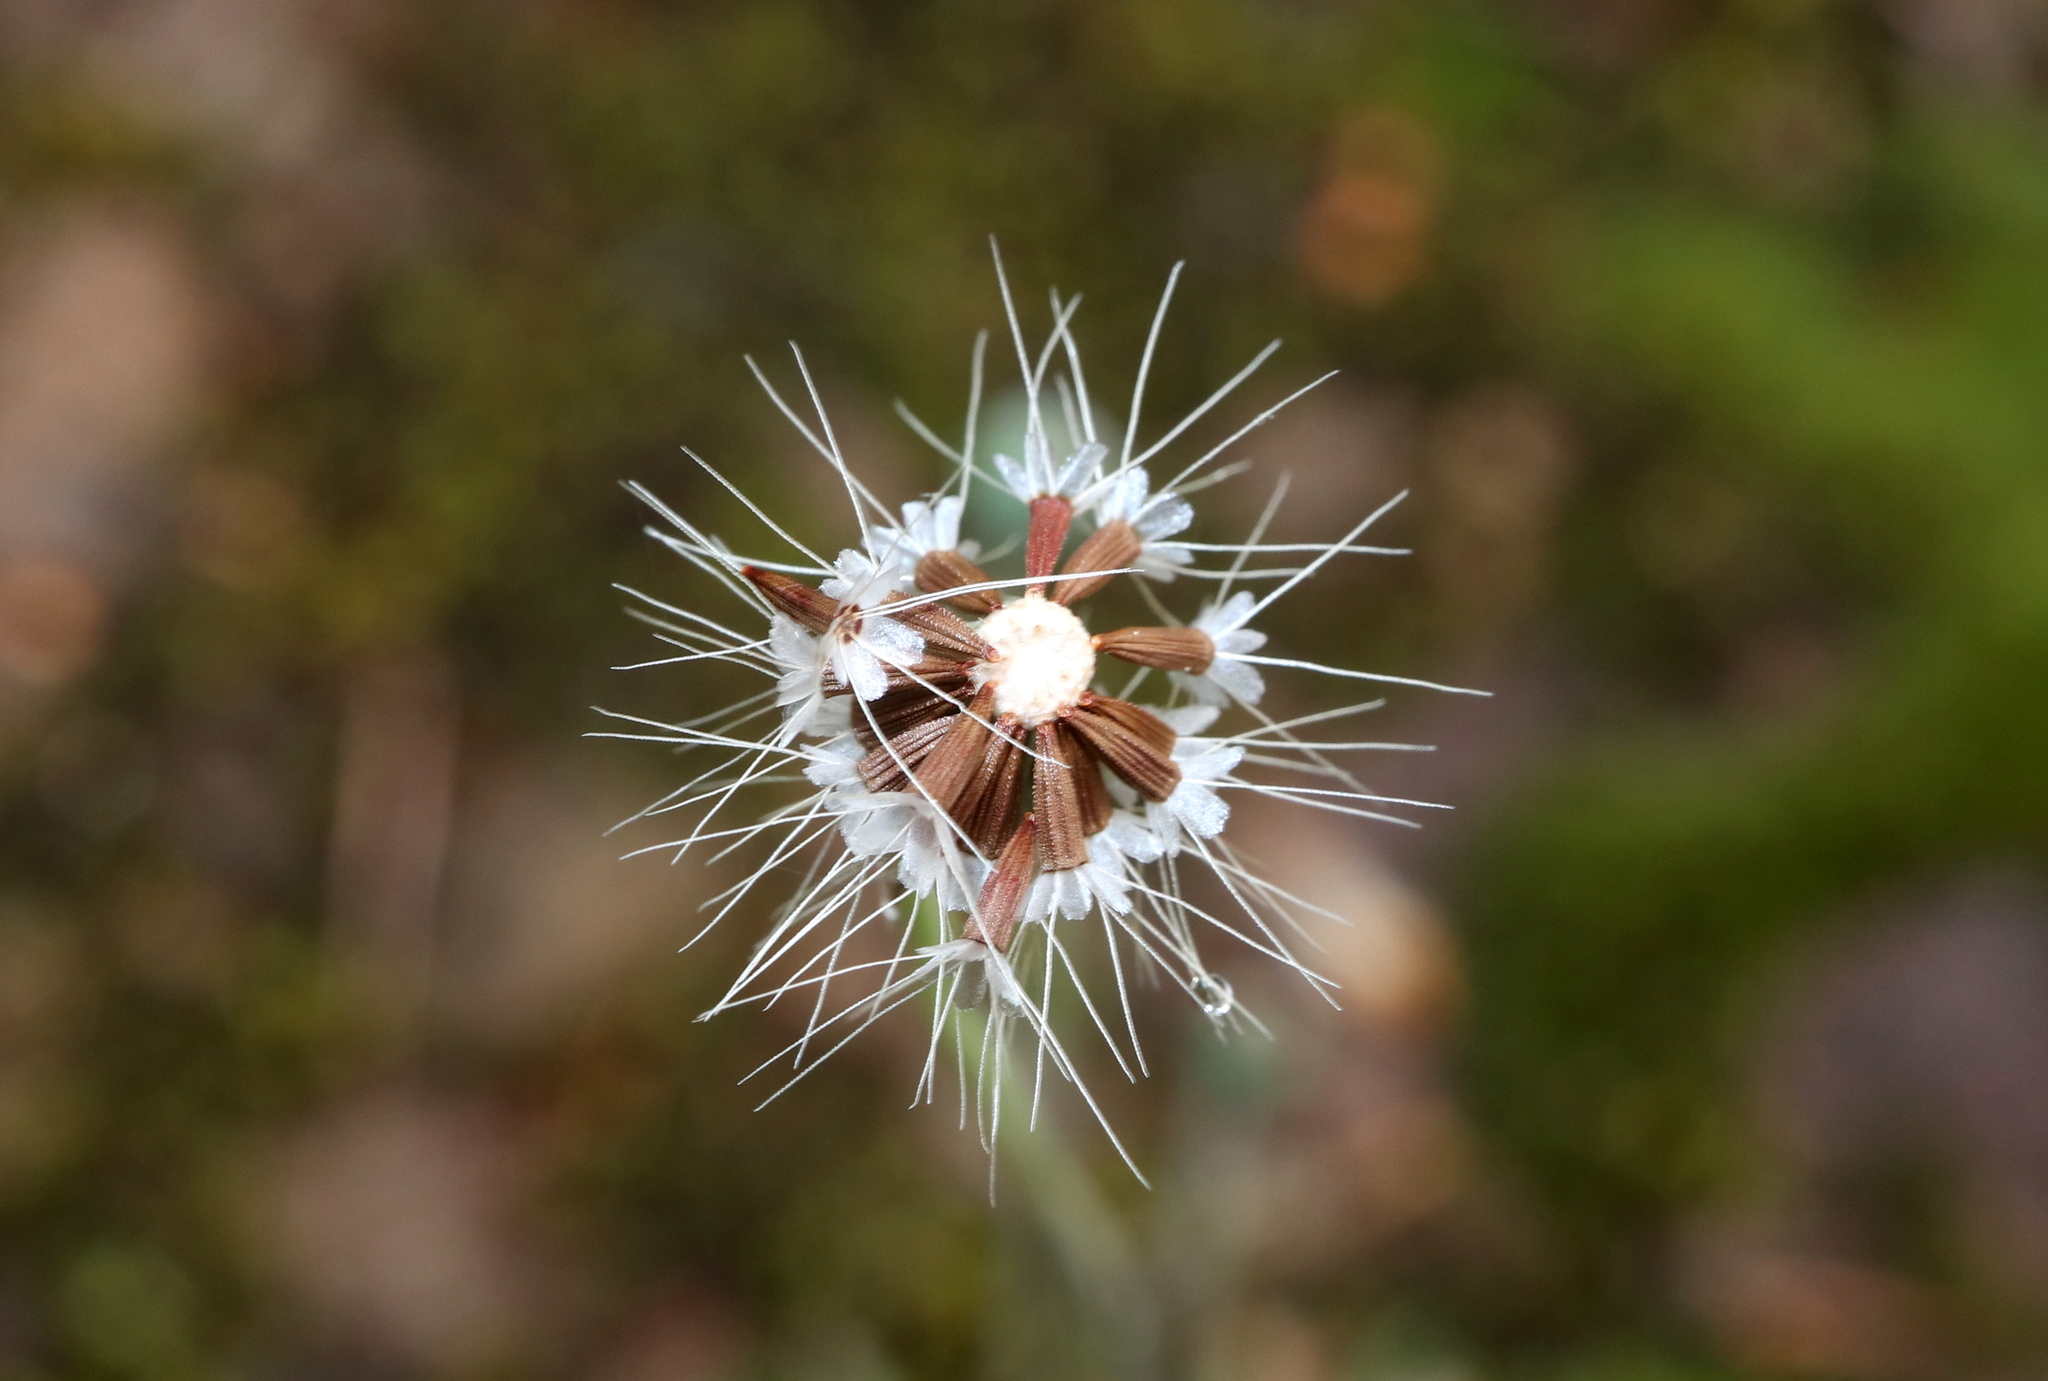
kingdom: Plantae
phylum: Tracheophyta
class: Magnoliopsida
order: Asterales
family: Asteraceae
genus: Krigia
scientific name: Krigia virginica
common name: Virginia dwarf-dandelion
